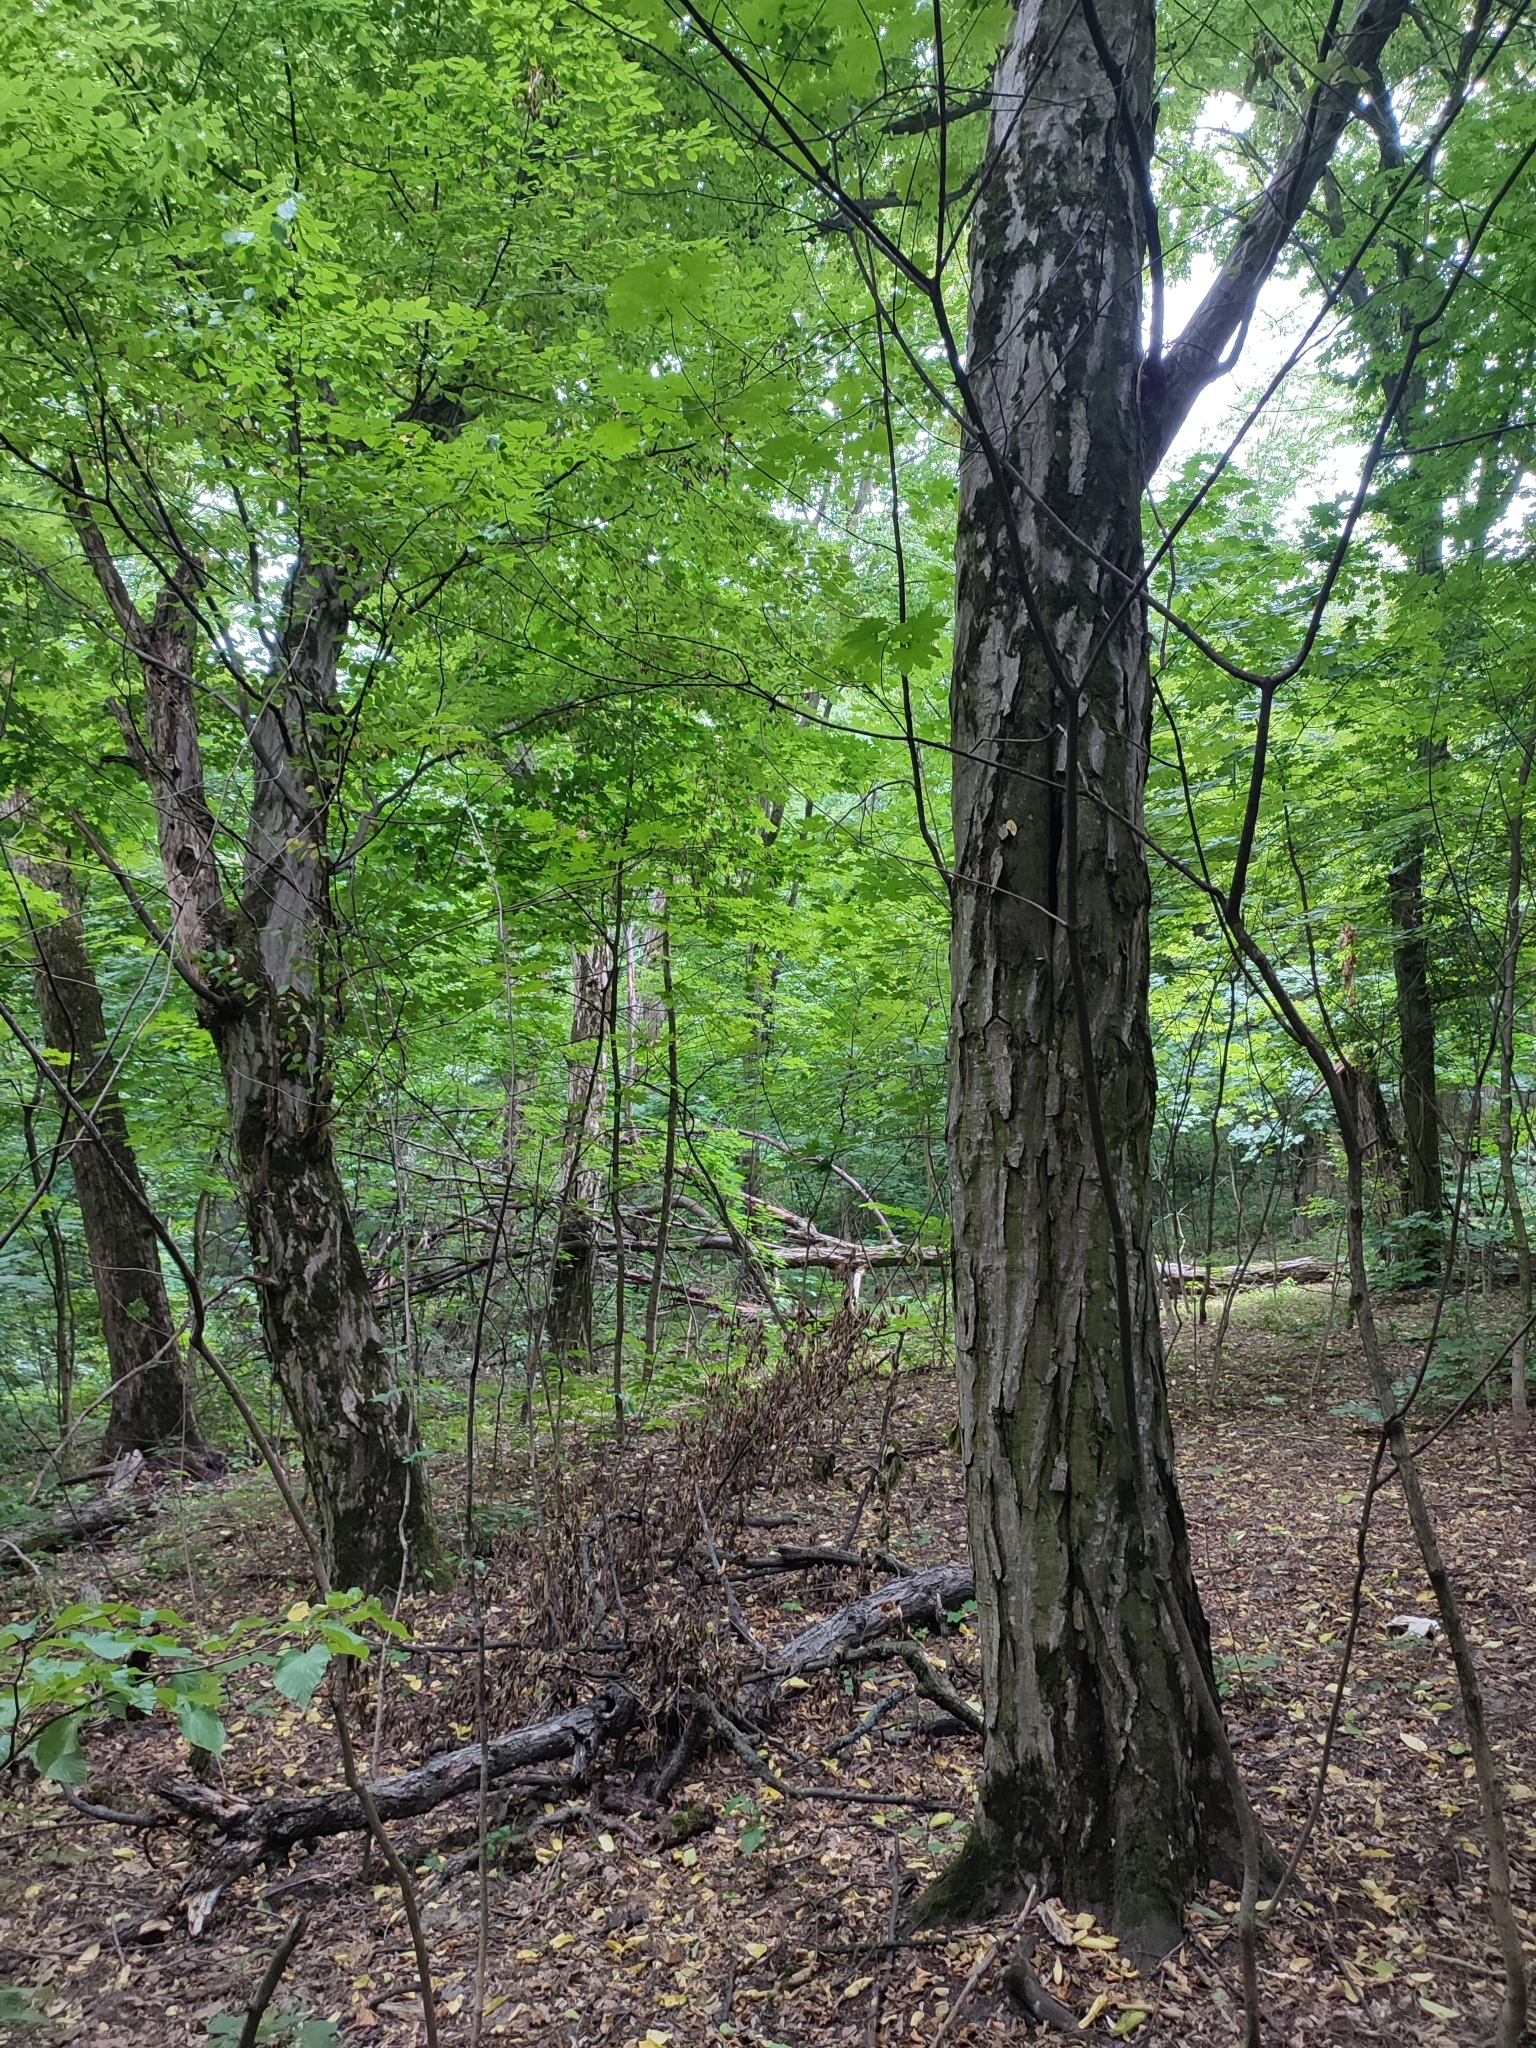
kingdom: Plantae
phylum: Tracheophyta
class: Magnoliopsida
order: Fagales
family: Betulaceae
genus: Carpinus
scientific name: Carpinus betulus
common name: Hornbeam
